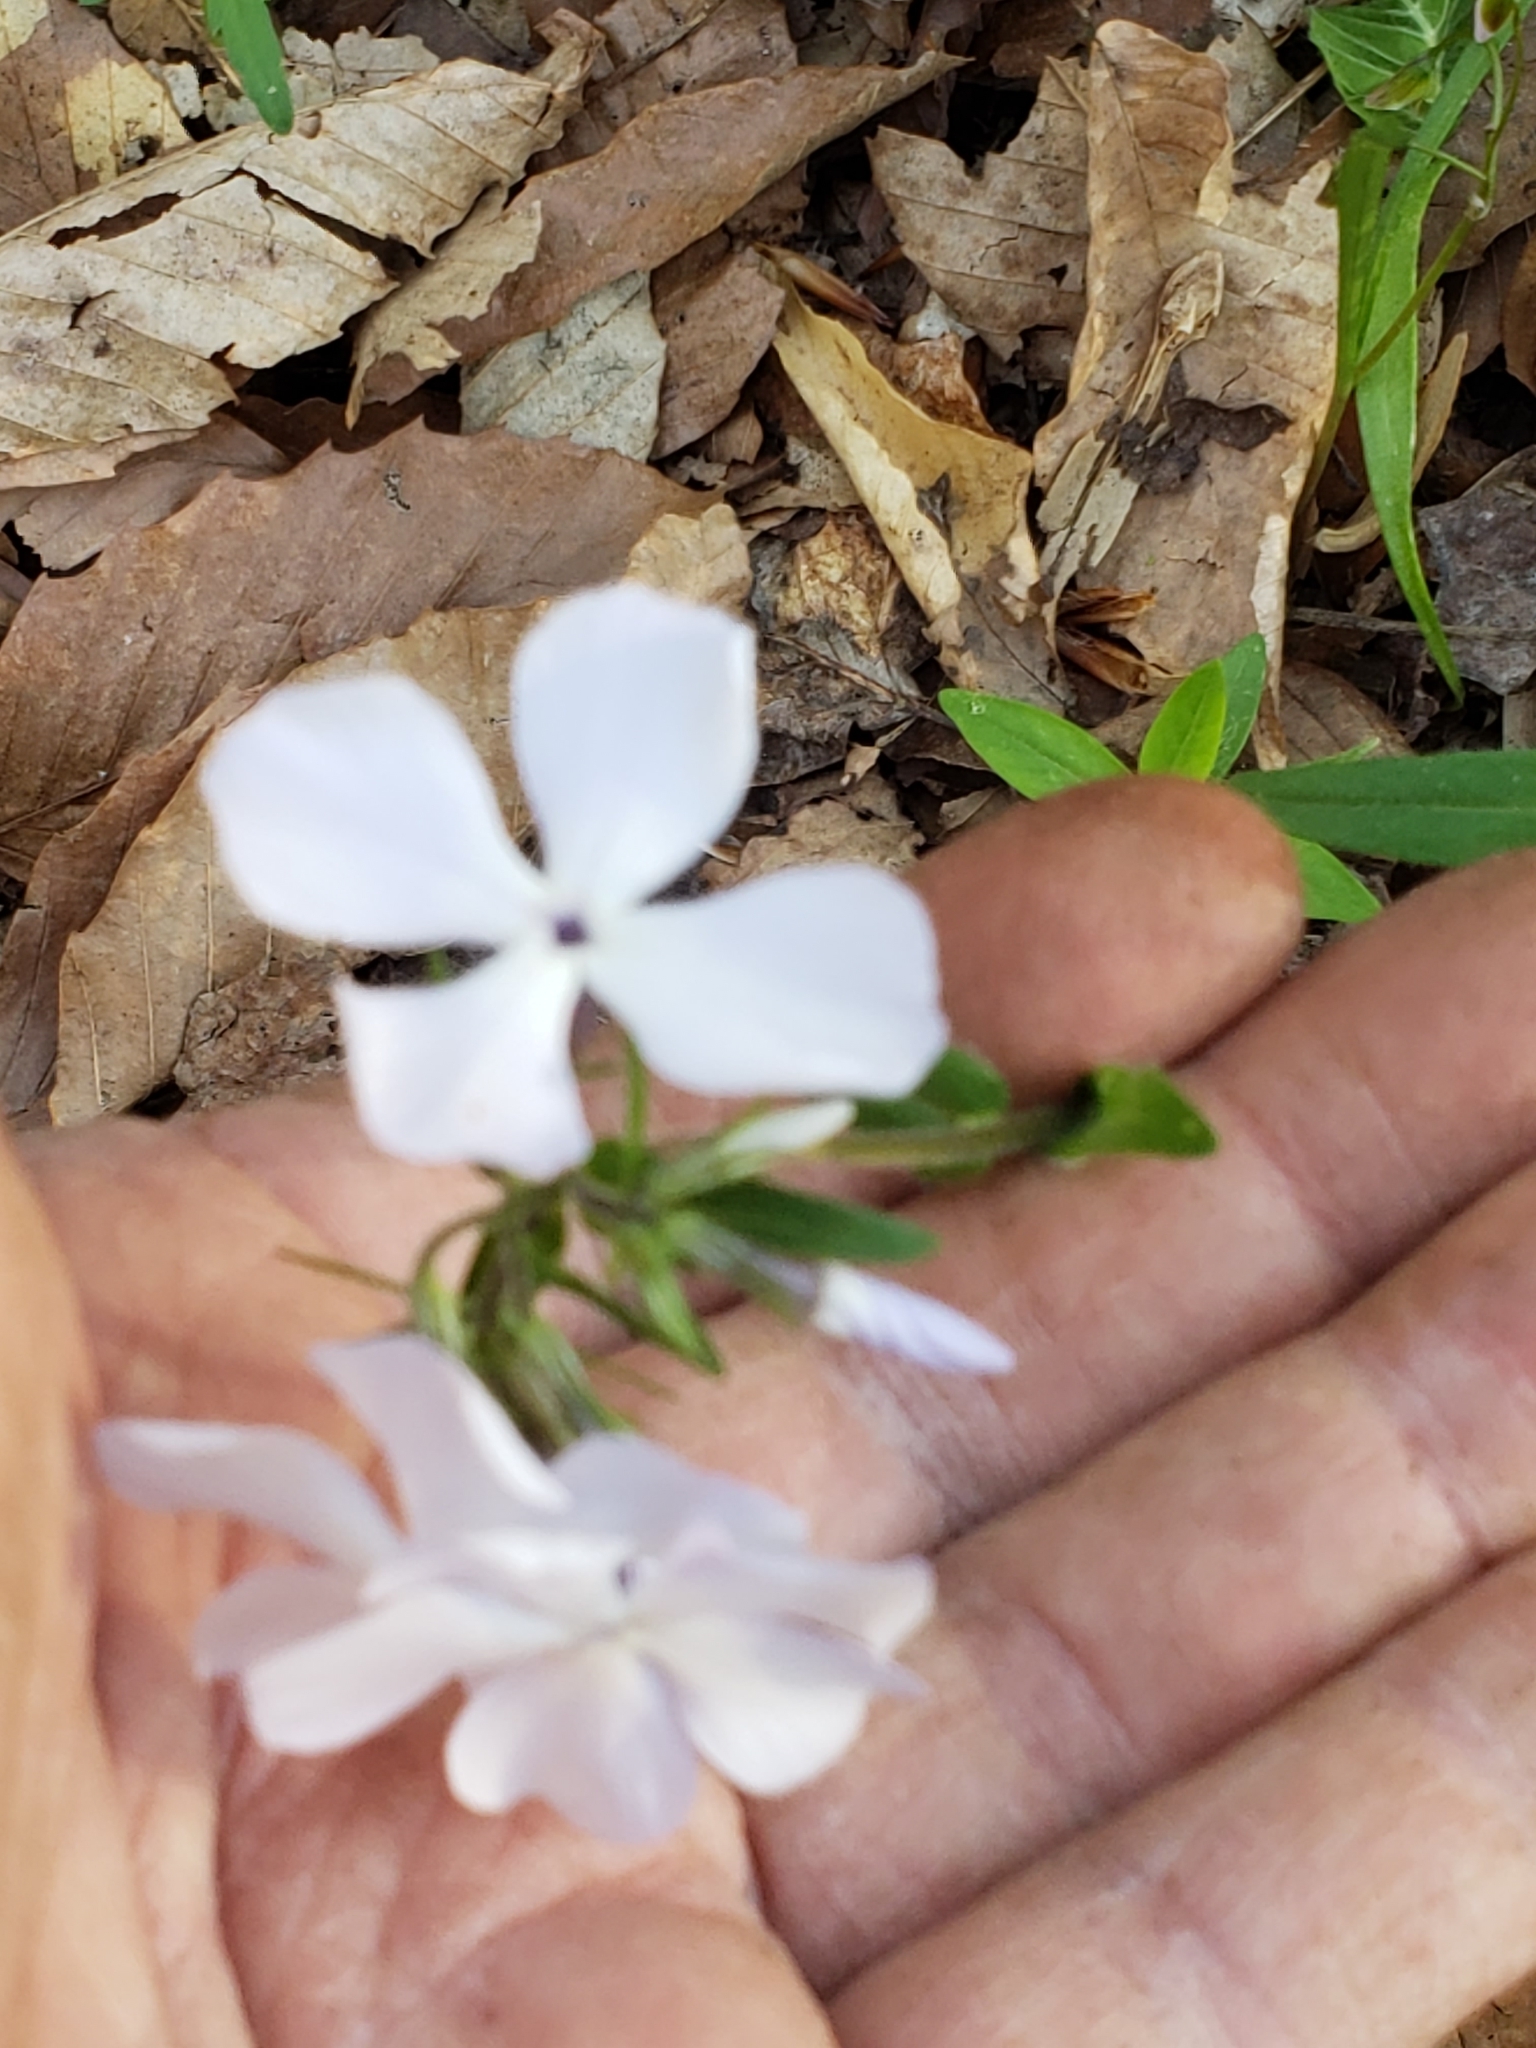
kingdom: Plantae
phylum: Tracheophyta
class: Magnoliopsida
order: Ericales
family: Polemoniaceae
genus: Phlox
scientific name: Phlox divaricata
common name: Blue phlox
